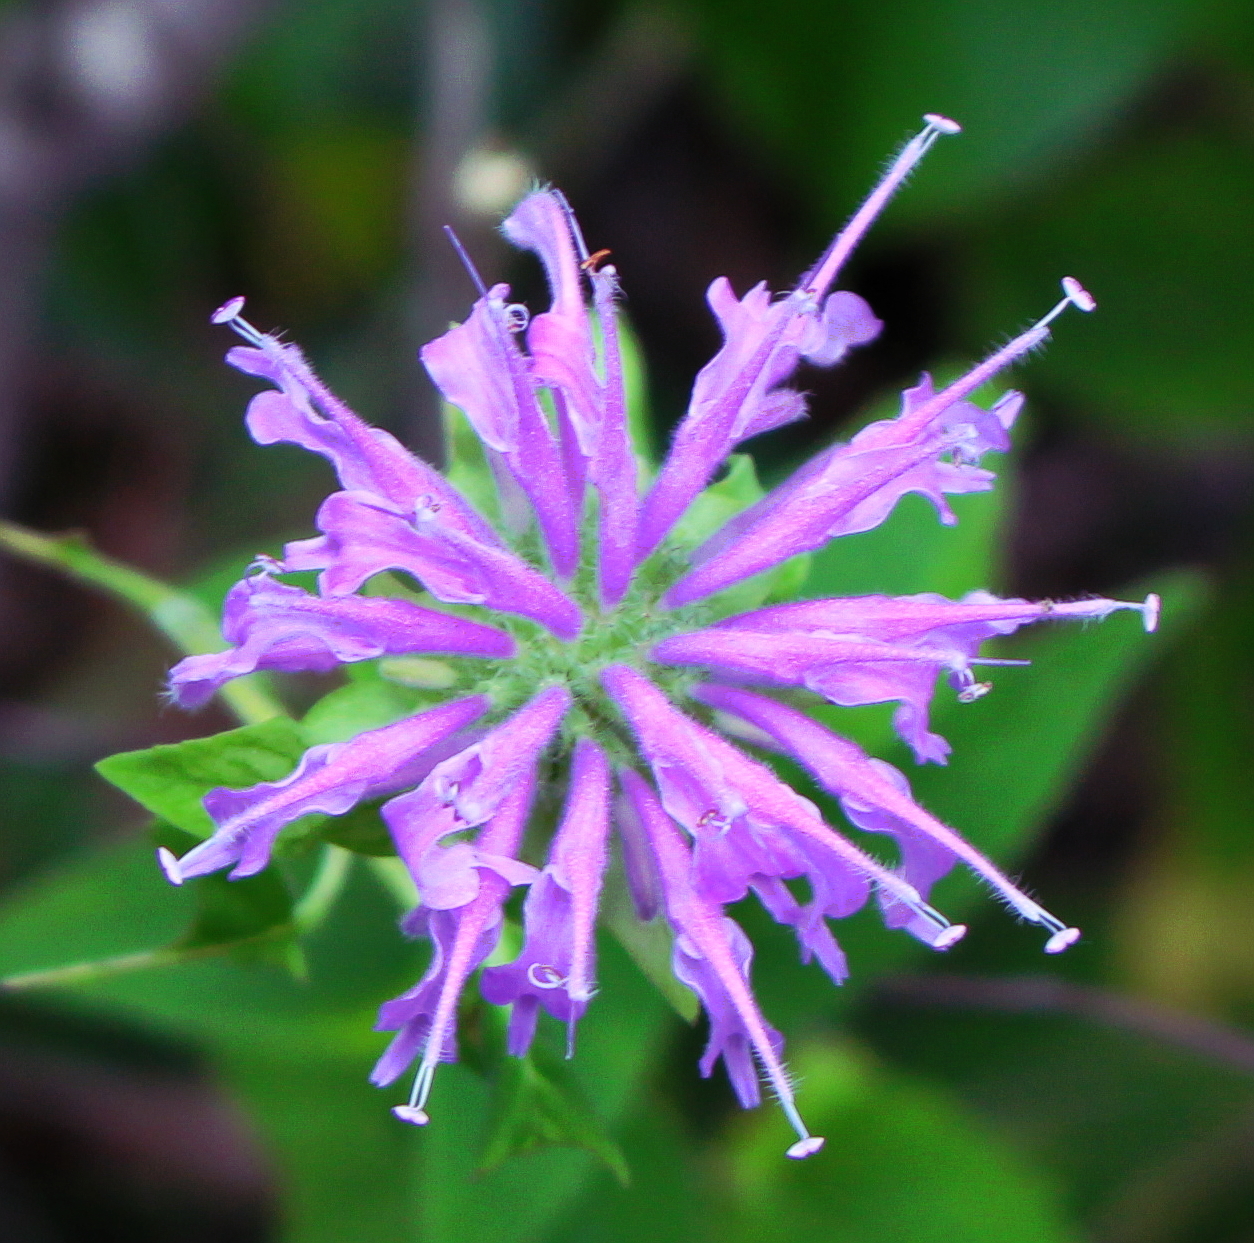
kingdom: Plantae
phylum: Tracheophyta
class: Magnoliopsida
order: Lamiales
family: Lamiaceae
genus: Monarda
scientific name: Monarda fistulosa
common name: Purple beebalm
